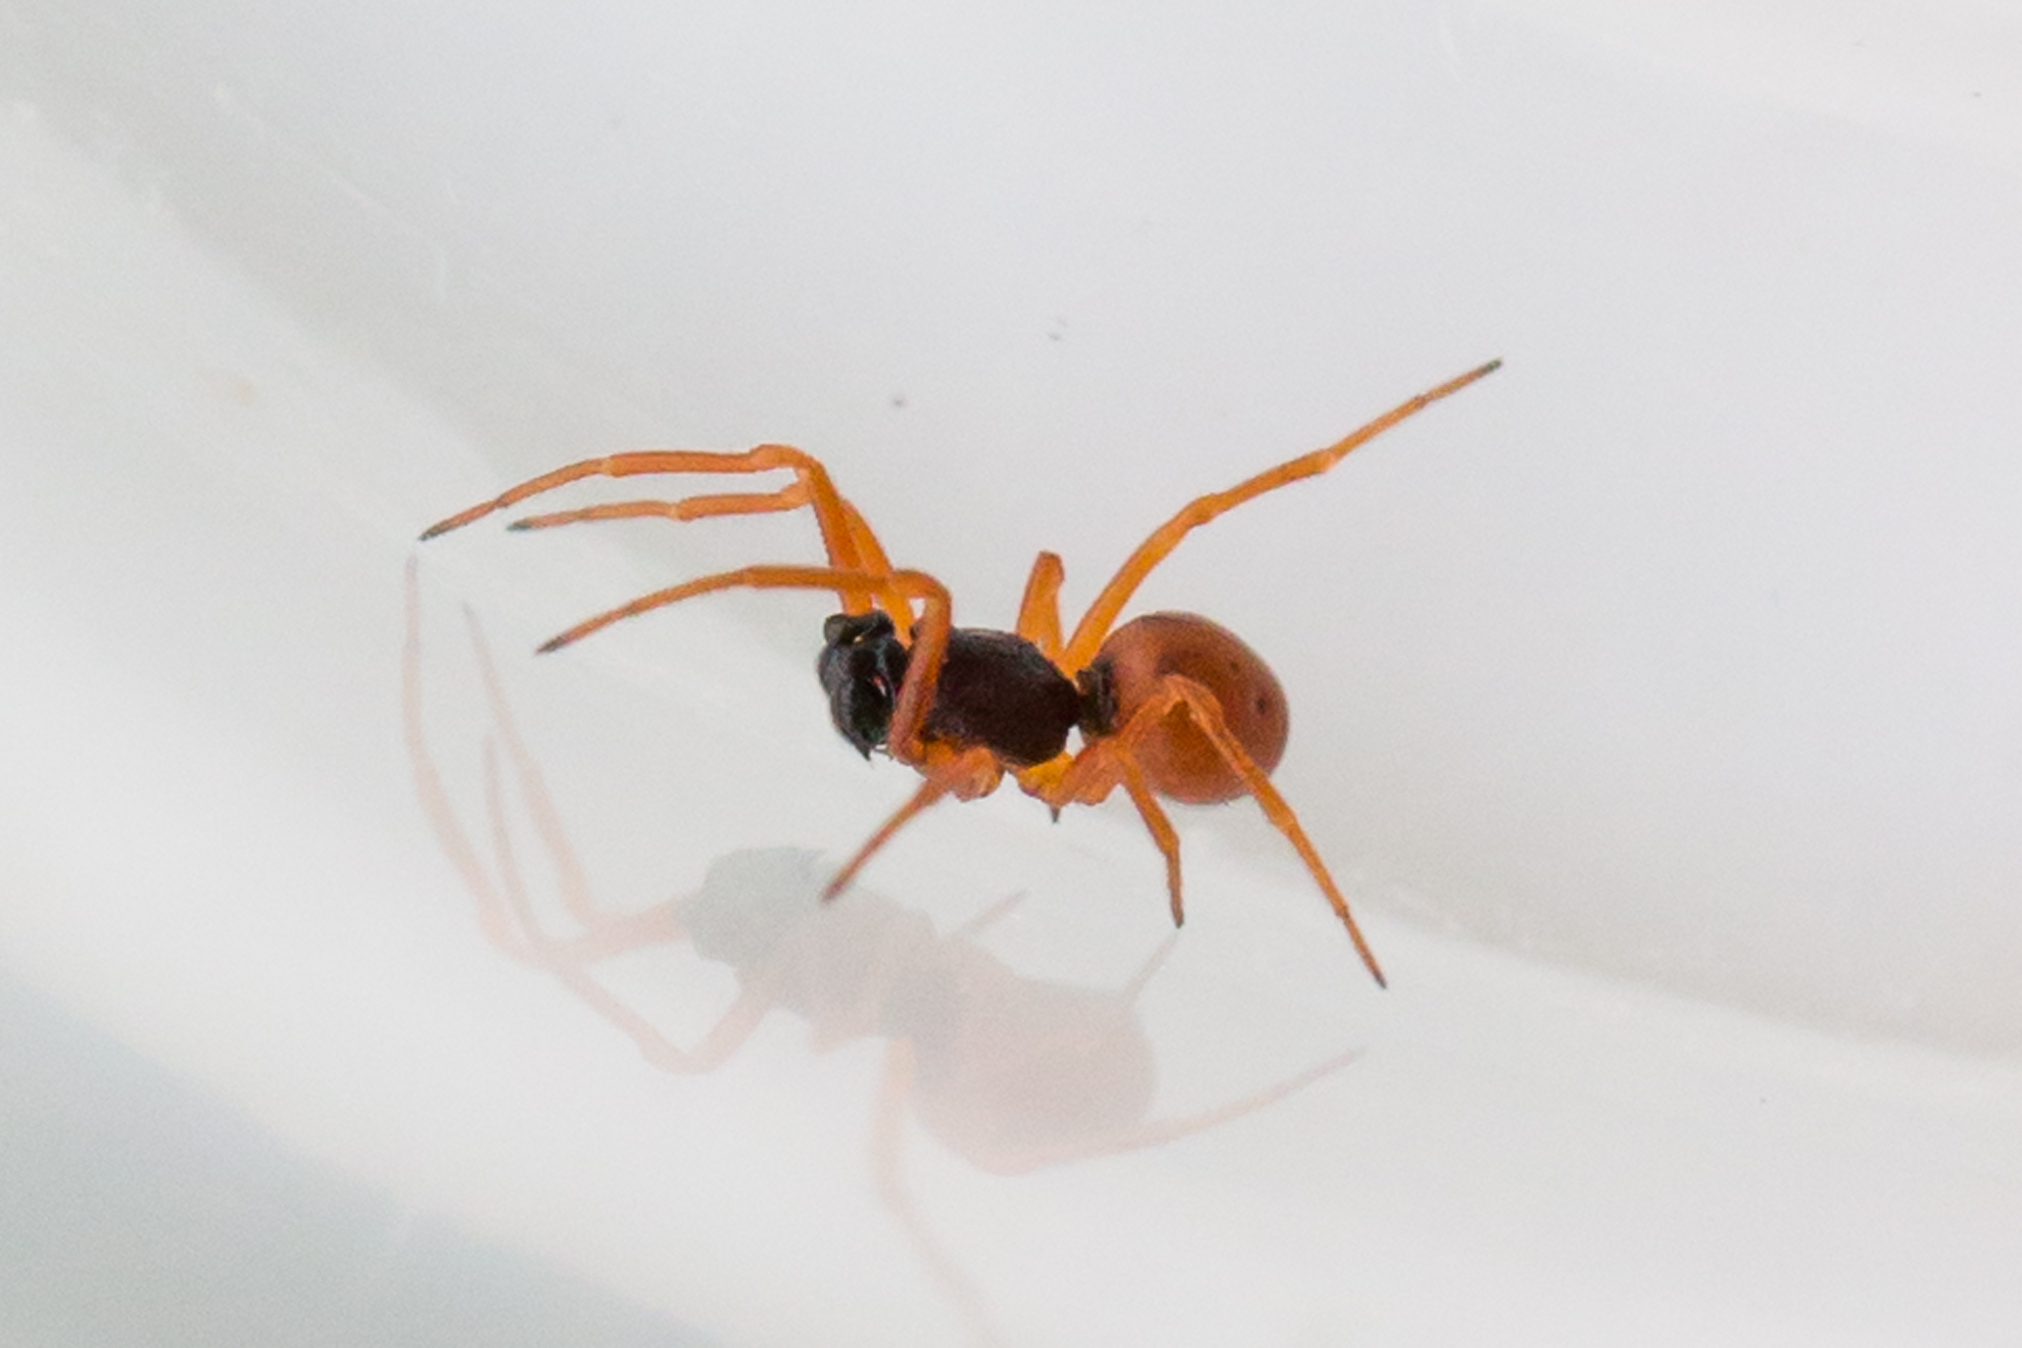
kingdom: Animalia
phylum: Arthropoda
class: Arachnida
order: Araneae
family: Theridiidae
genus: Crustulina
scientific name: Crustulina sticta
